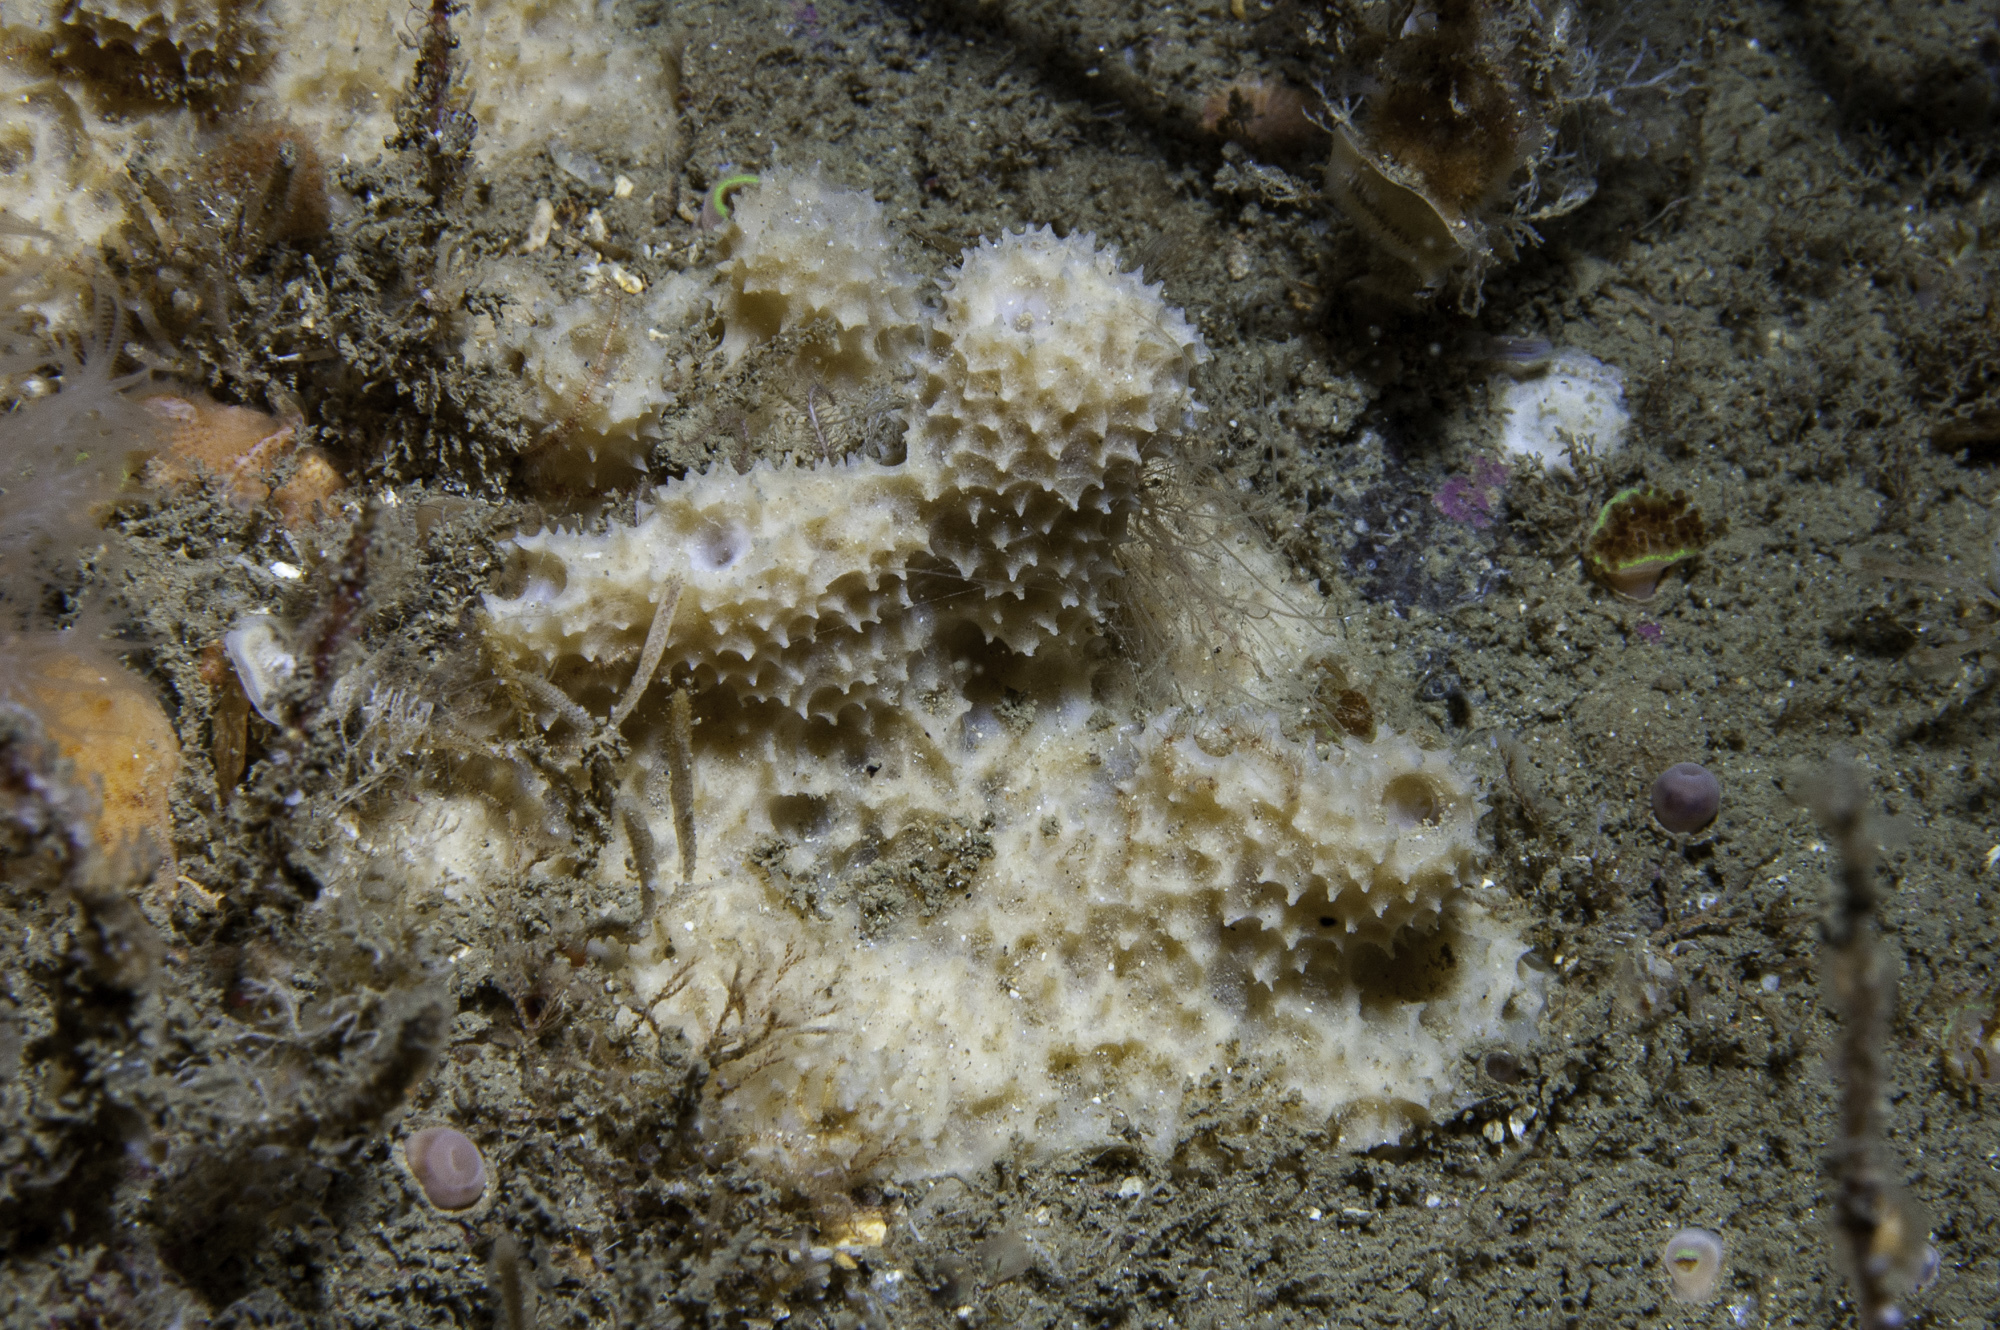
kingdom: Animalia
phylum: Porifera
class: Demospongiae
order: Dictyoceratida
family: Dysideidae
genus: Dysidea
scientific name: Dysidea fragilis
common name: Goosebump sponge
